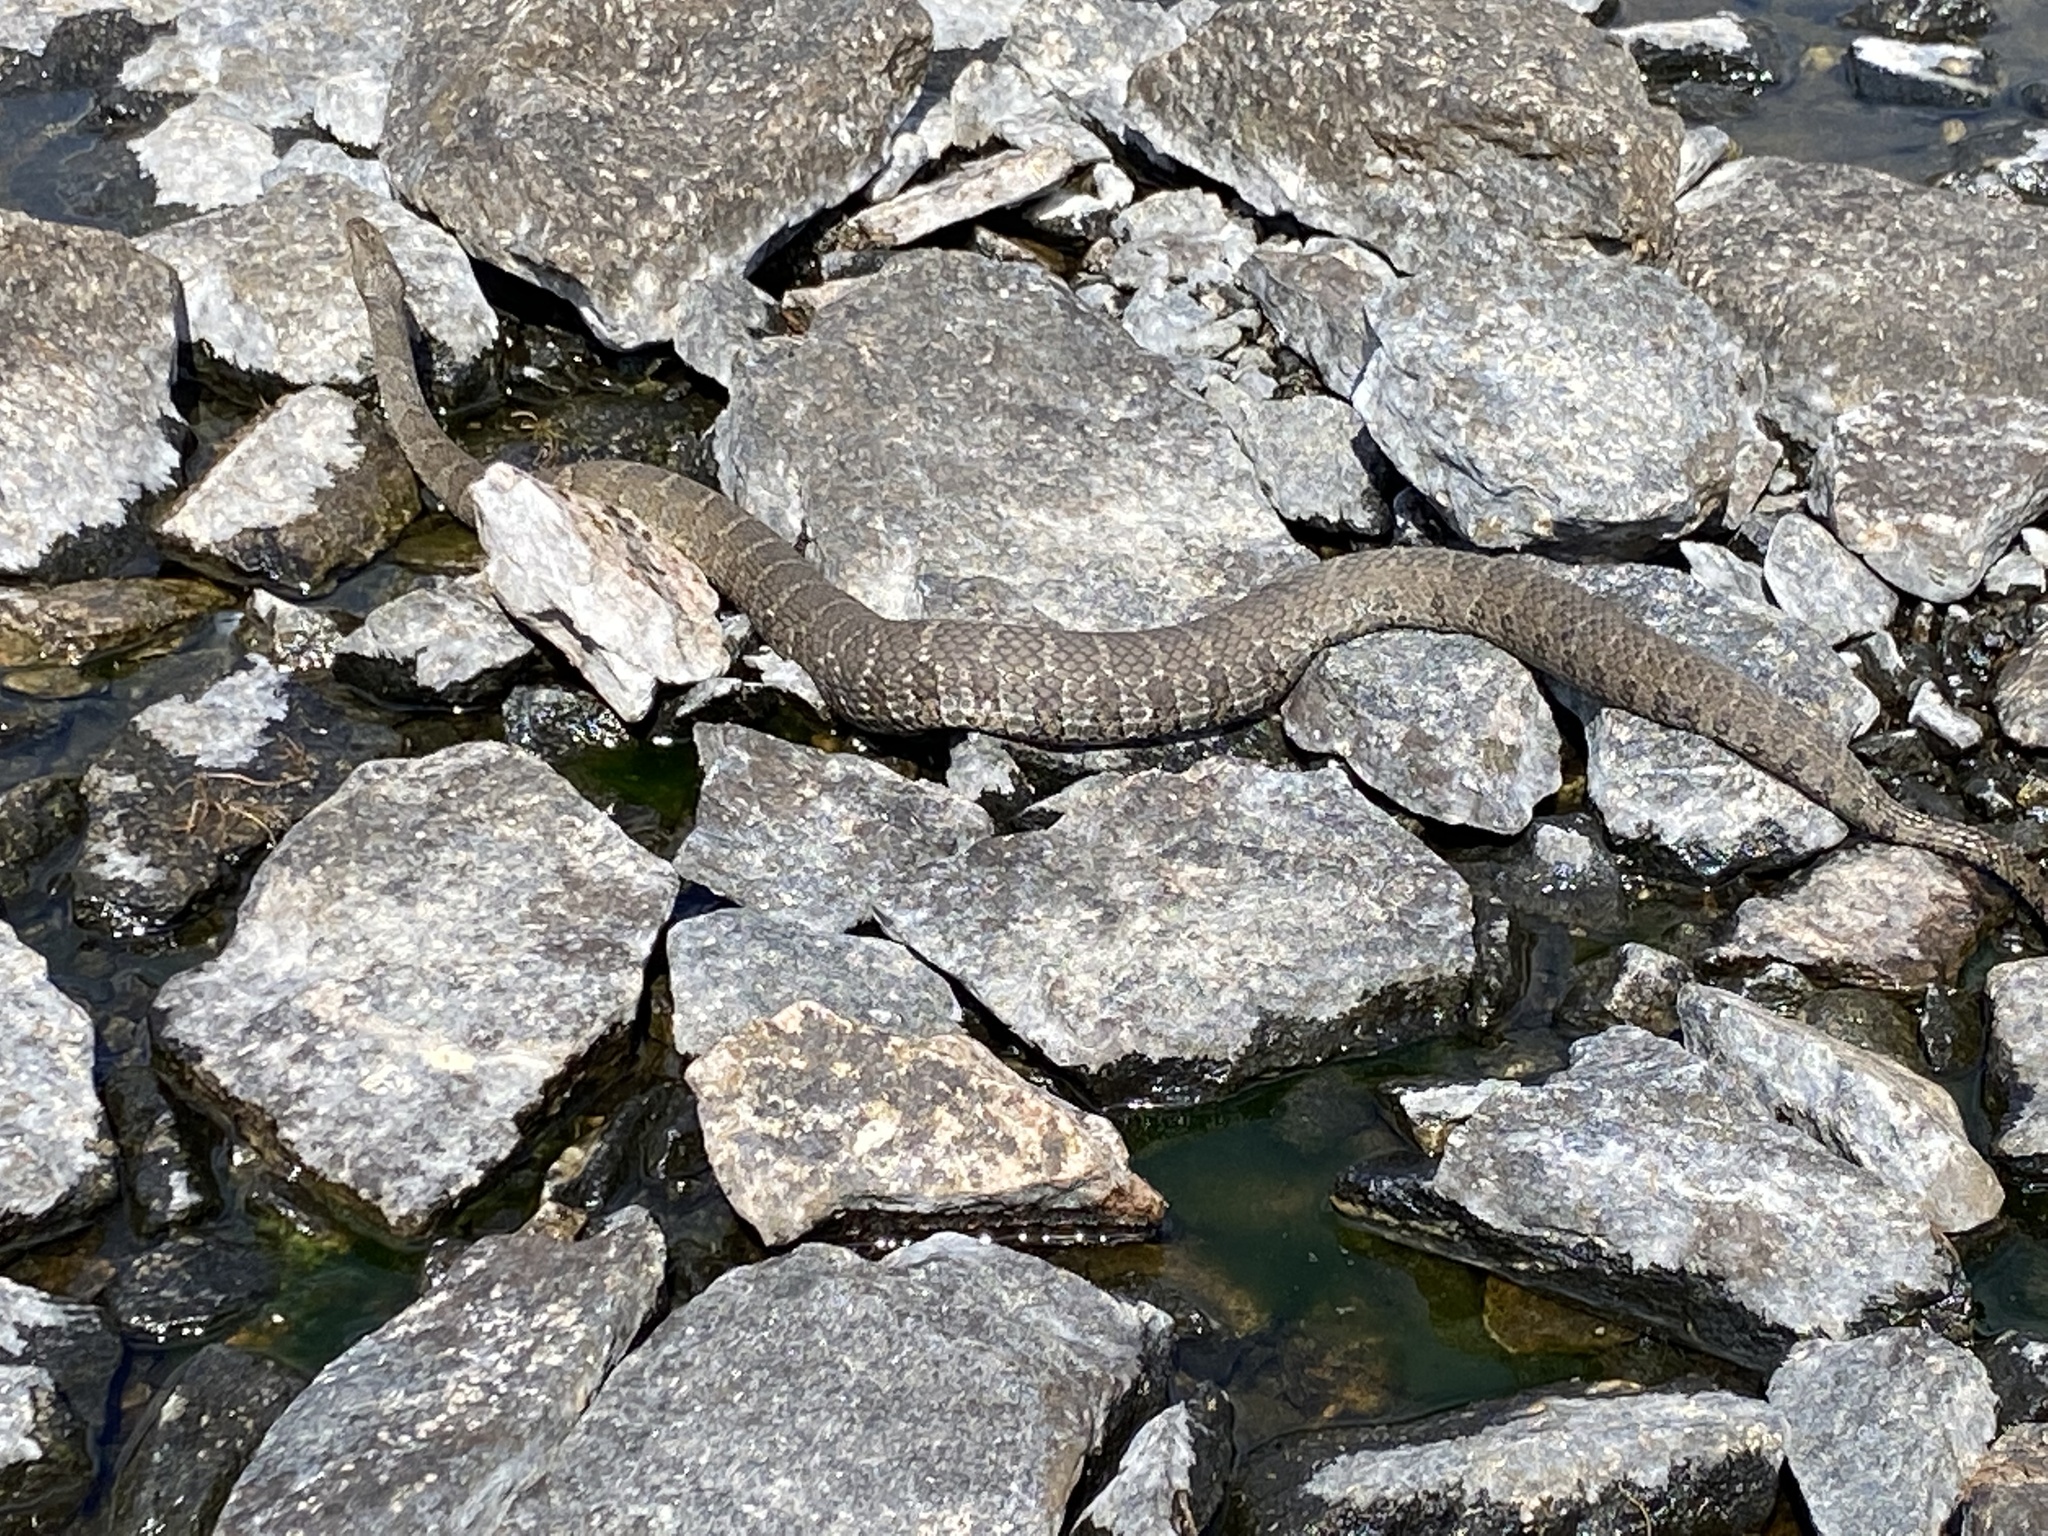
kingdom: Animalia
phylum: Chordata
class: Squamata
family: Colubridae
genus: Nerodia
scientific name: Nerodia sipedon
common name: Northern water snake
